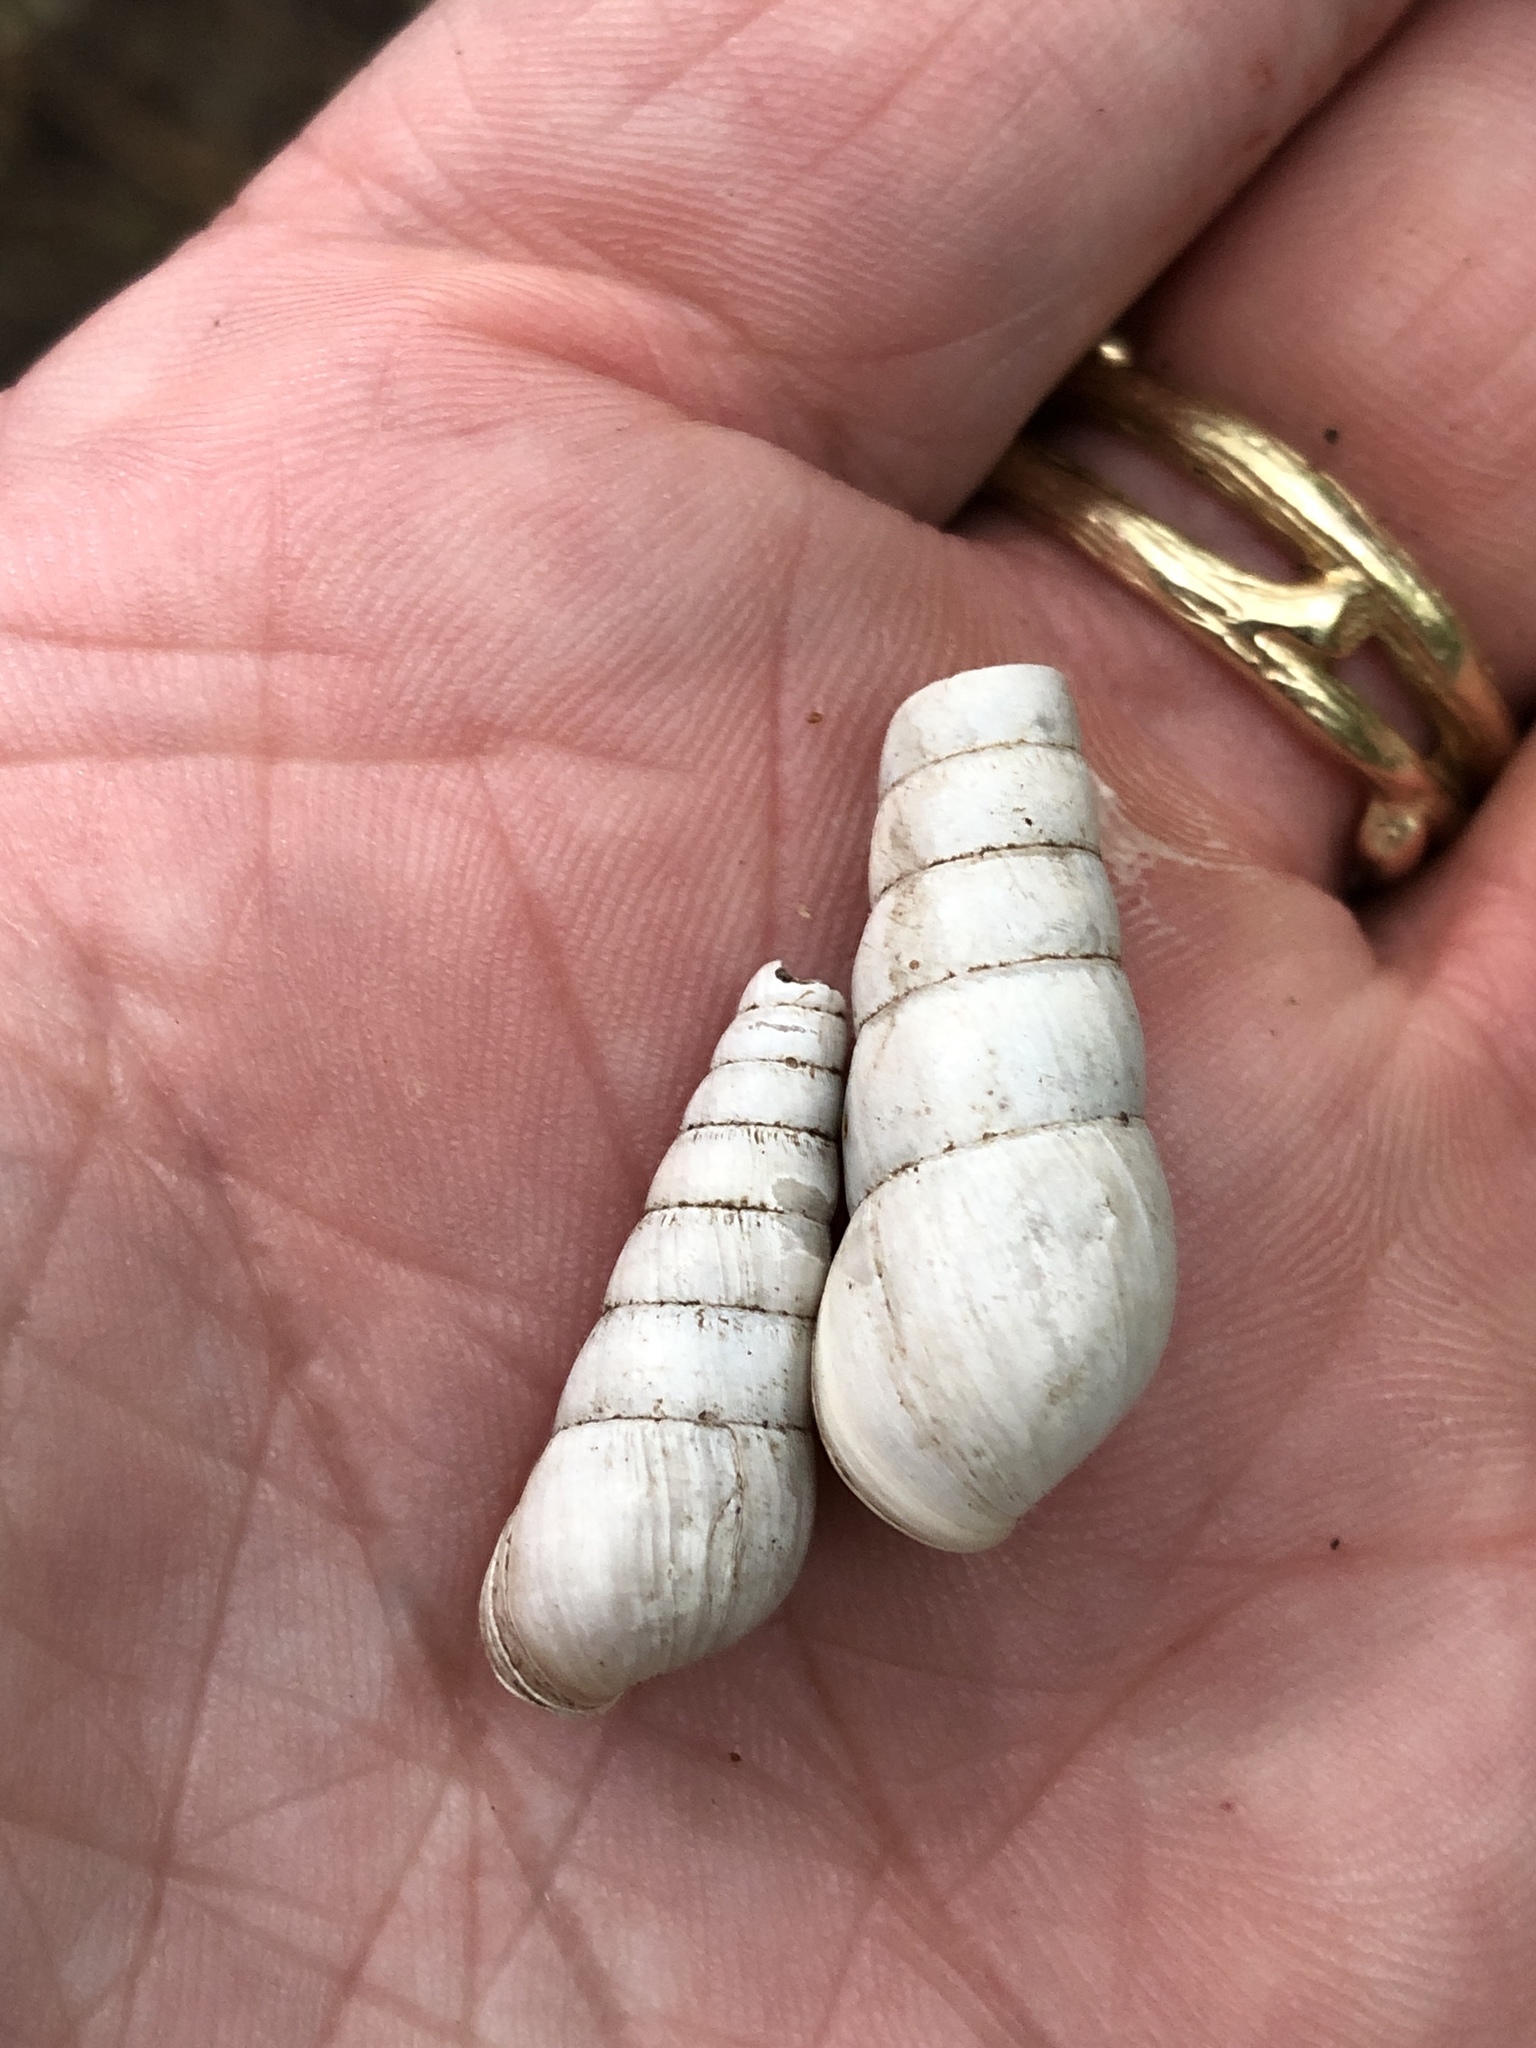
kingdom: Animalia
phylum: Mollusca
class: Gastropoda
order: Stylommatophora
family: Achatinidae
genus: Rumina
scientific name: Rumina decollata
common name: Decollate snail
